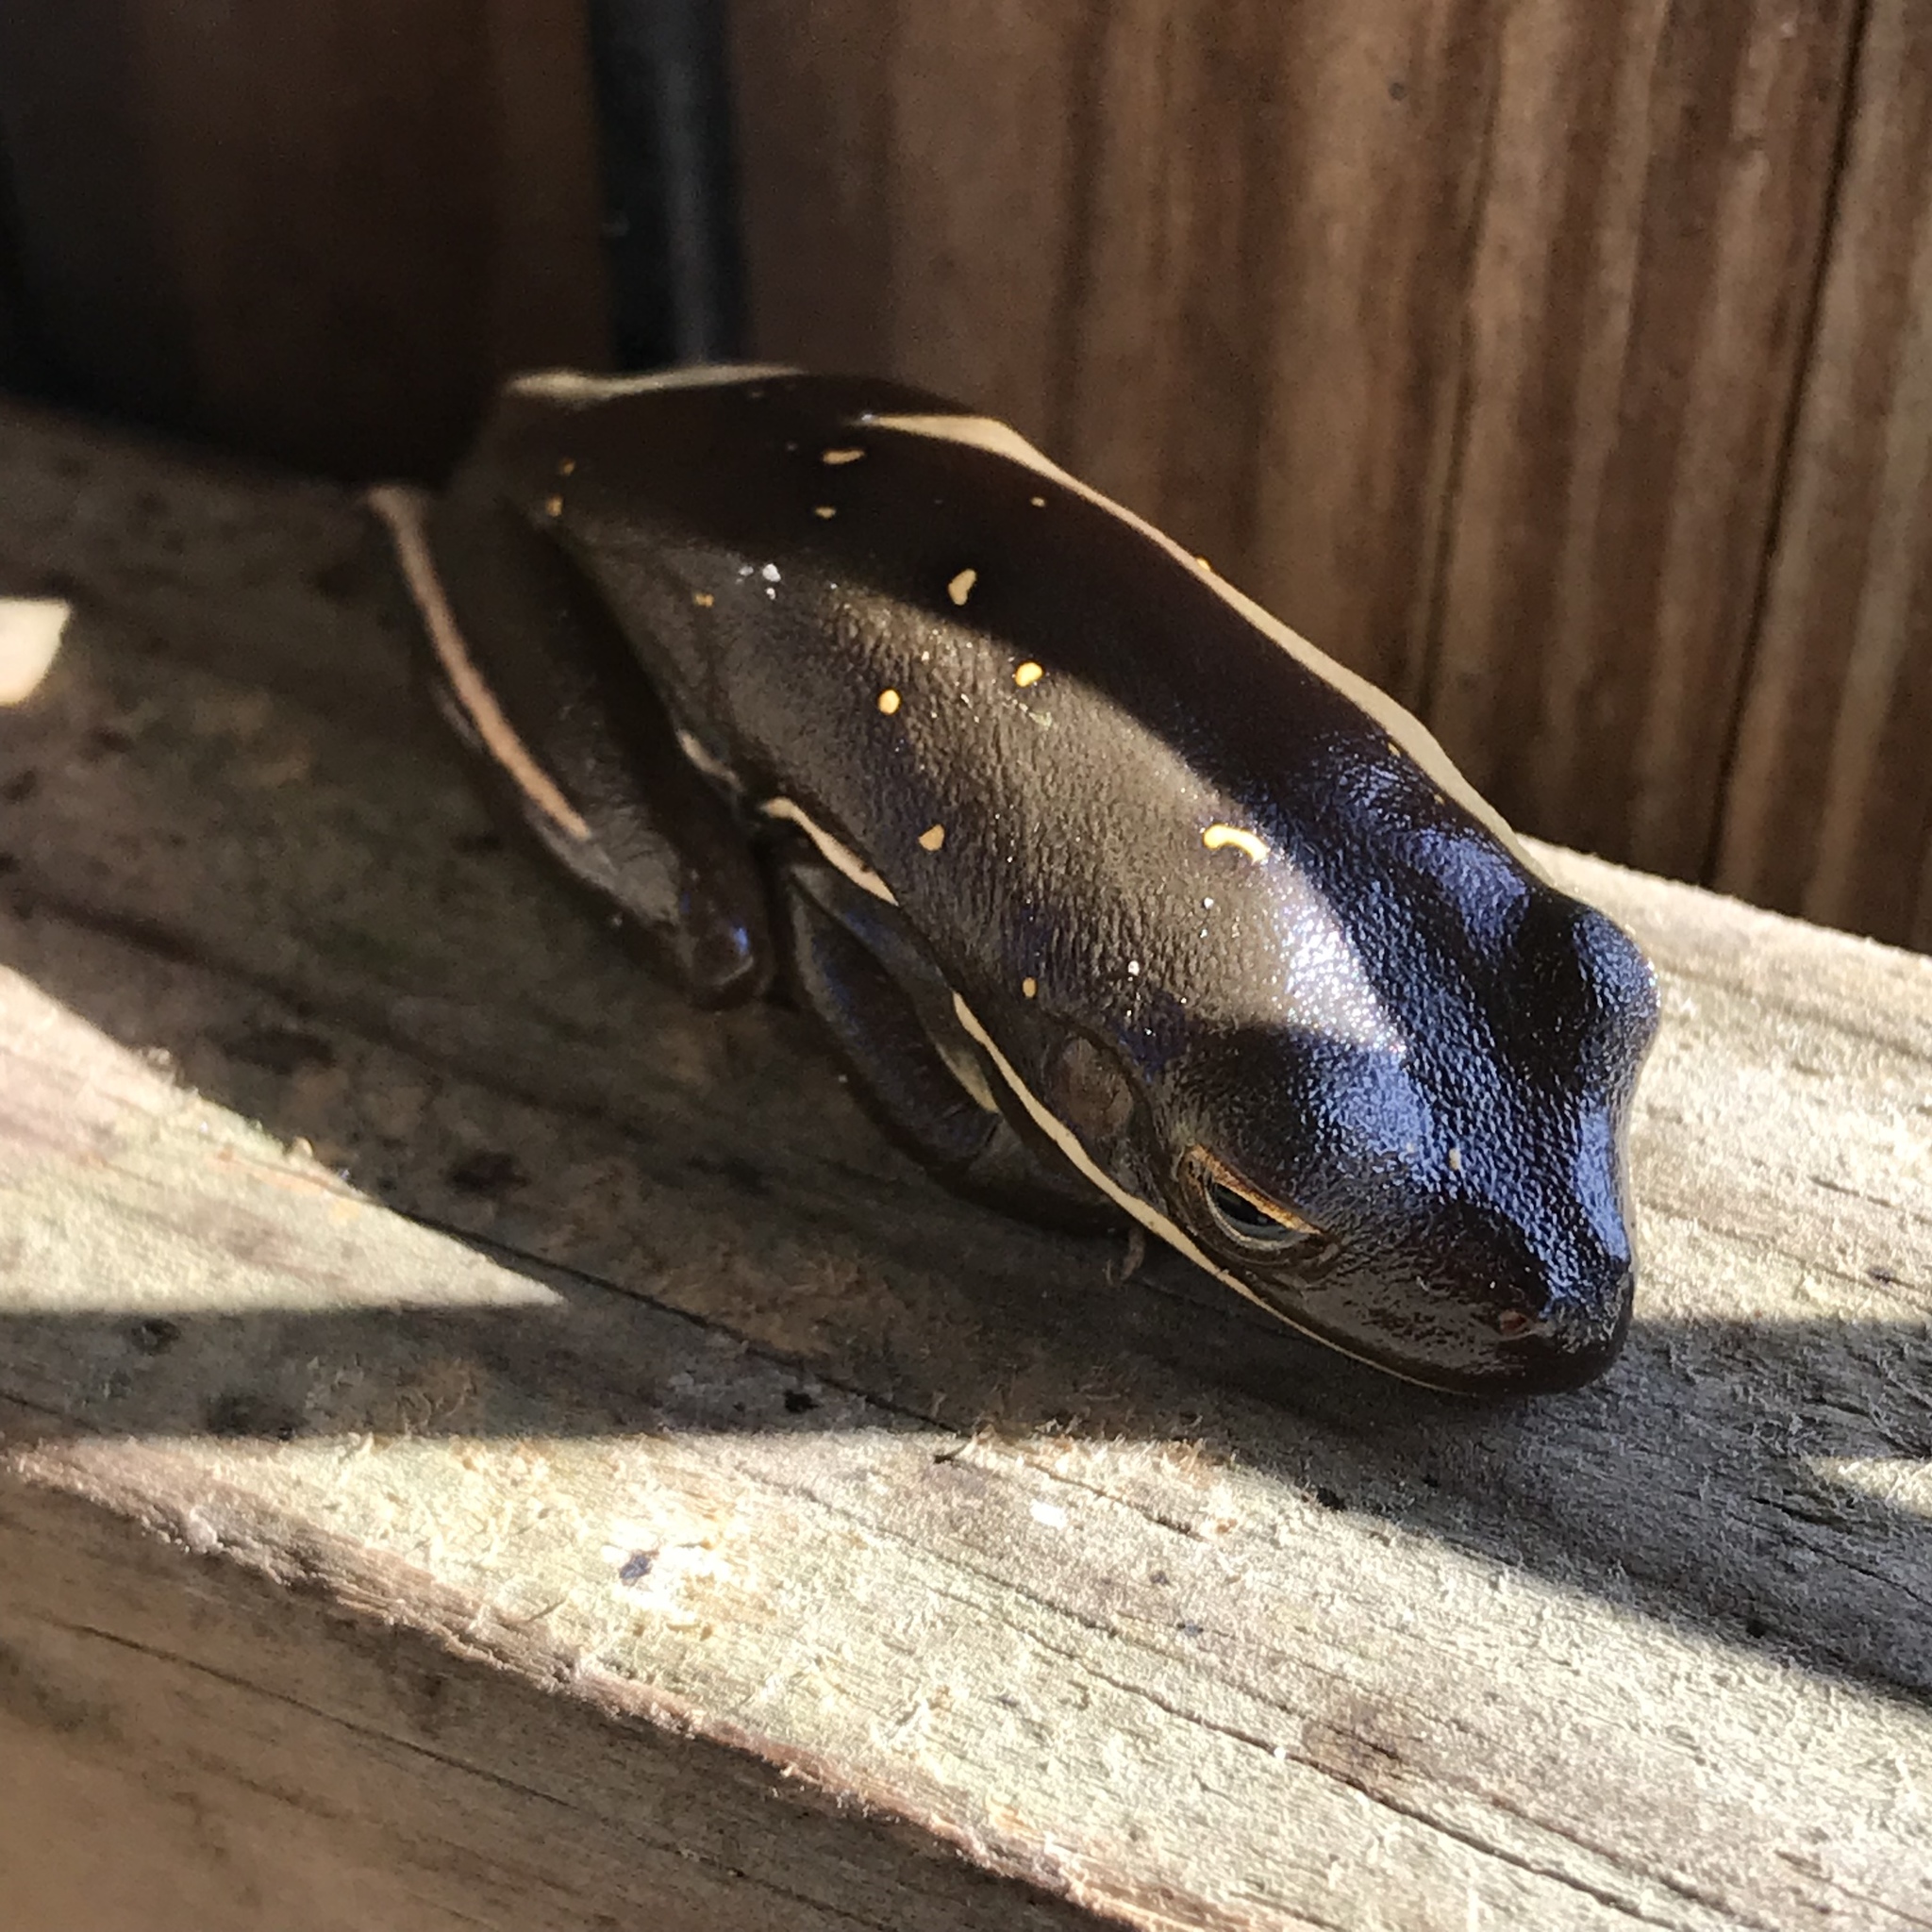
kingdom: Animalia
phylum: Chordata
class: Amphibia
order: Anura
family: Hylidae
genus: Dryophytes
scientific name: Dryophytes cinereus
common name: Green treefrog
